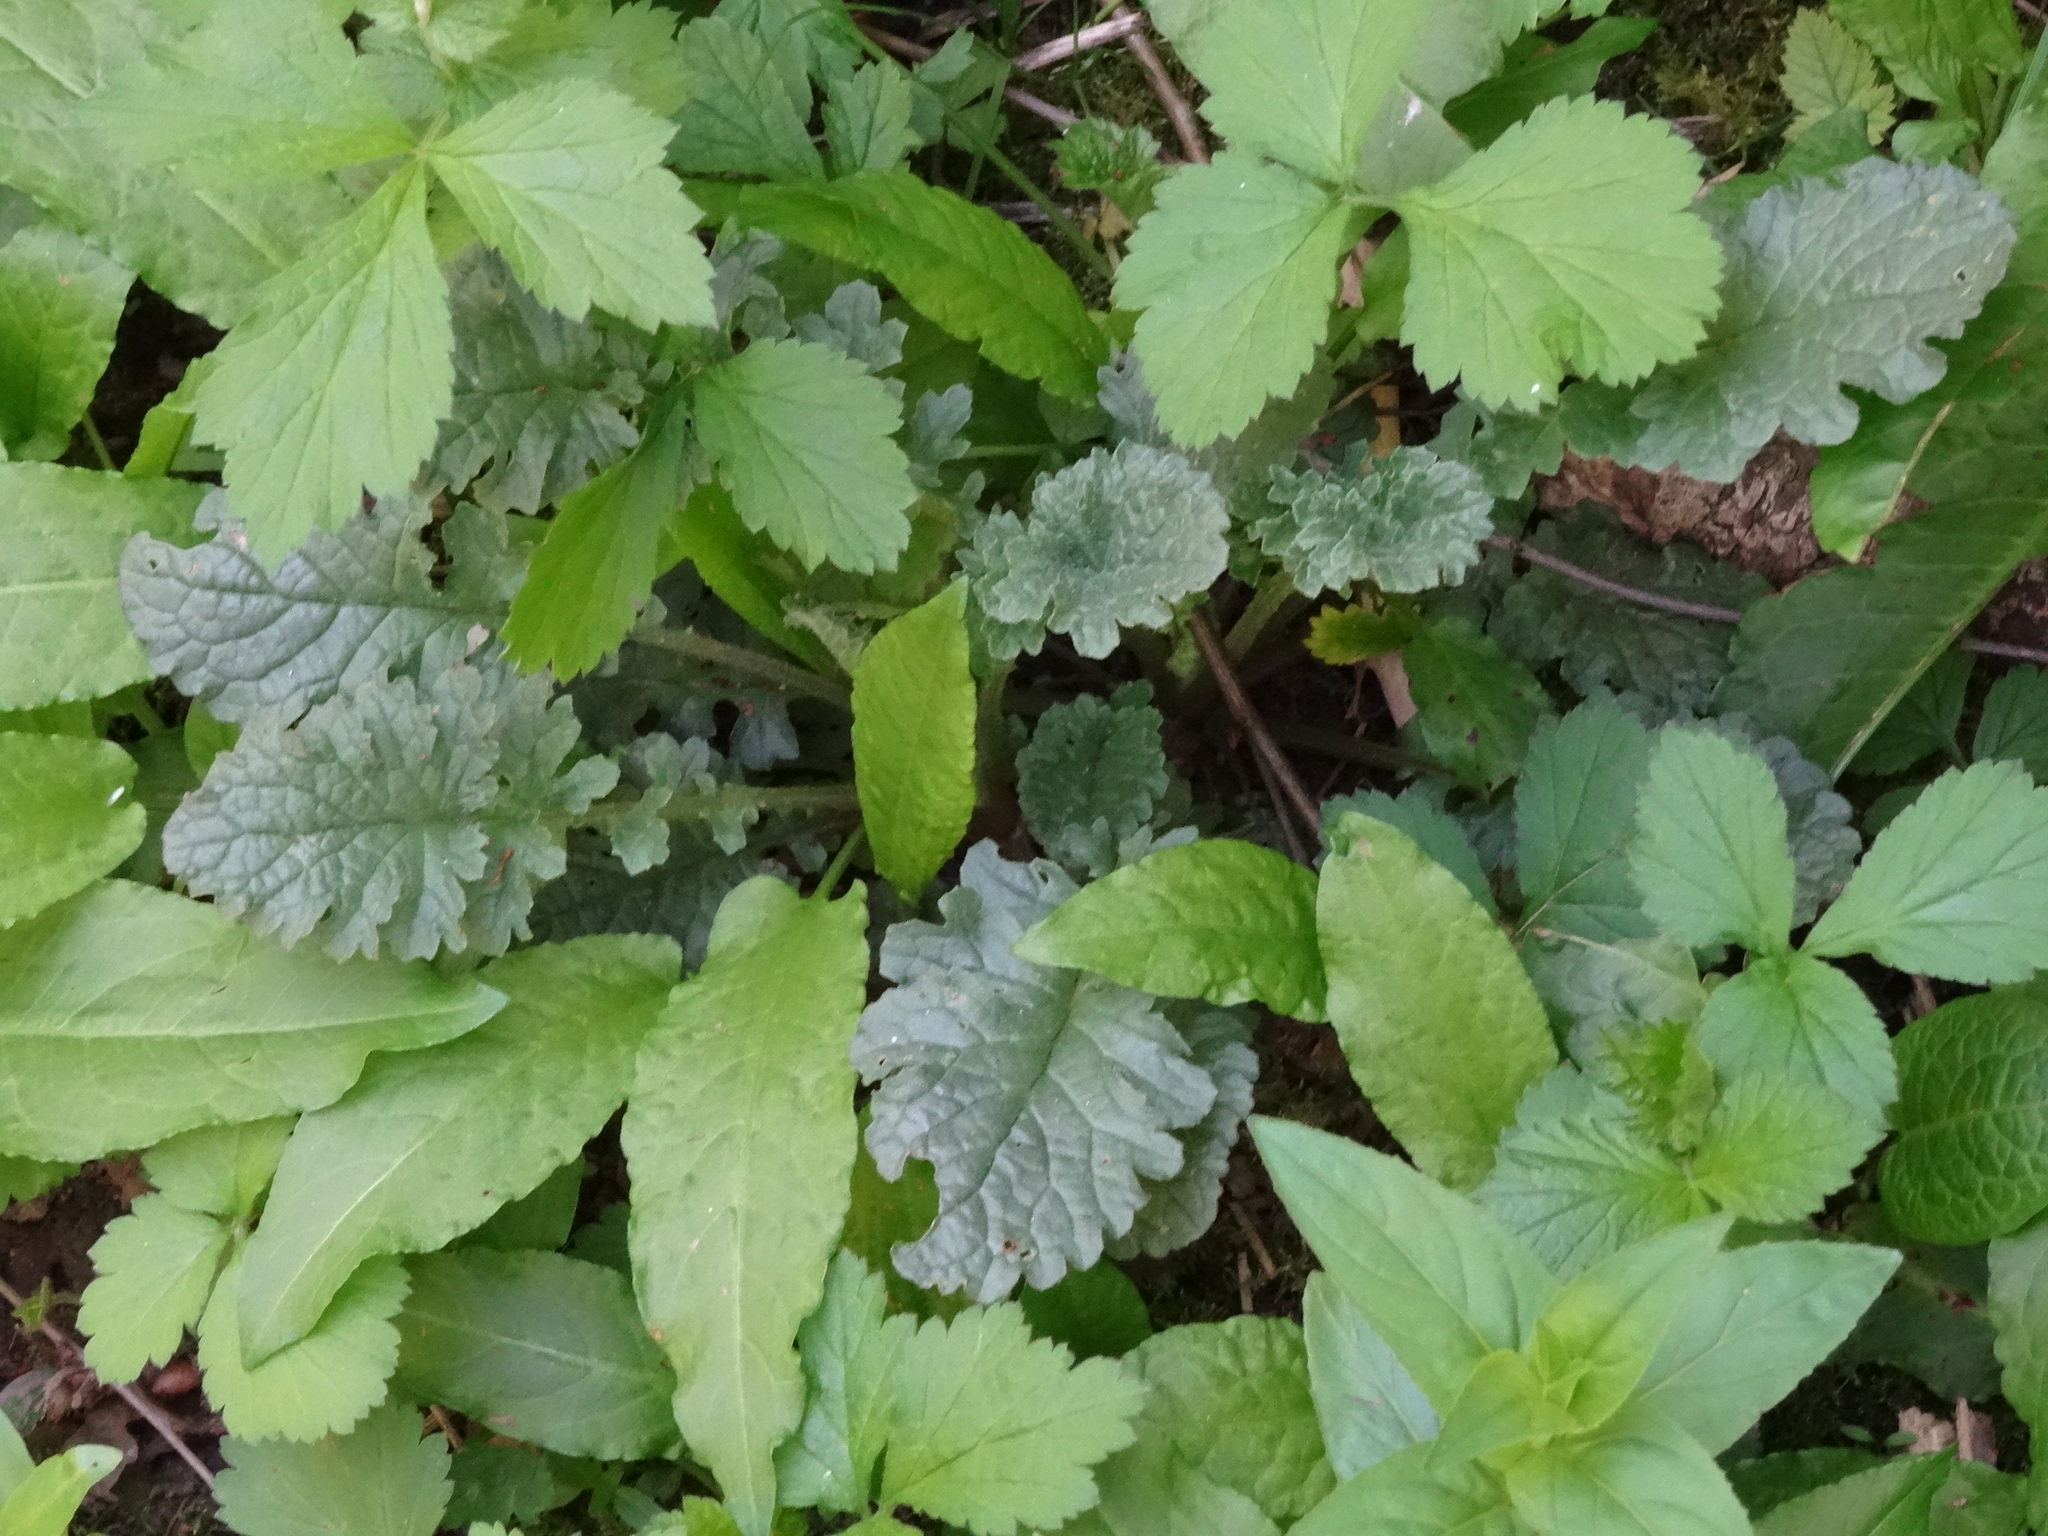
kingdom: Plantae
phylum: Tracheophyta
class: Magnoliopsida
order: Asterales
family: Asteraceae
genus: Jacobaea
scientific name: Jacobaea vulgaris
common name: Stinking willie
